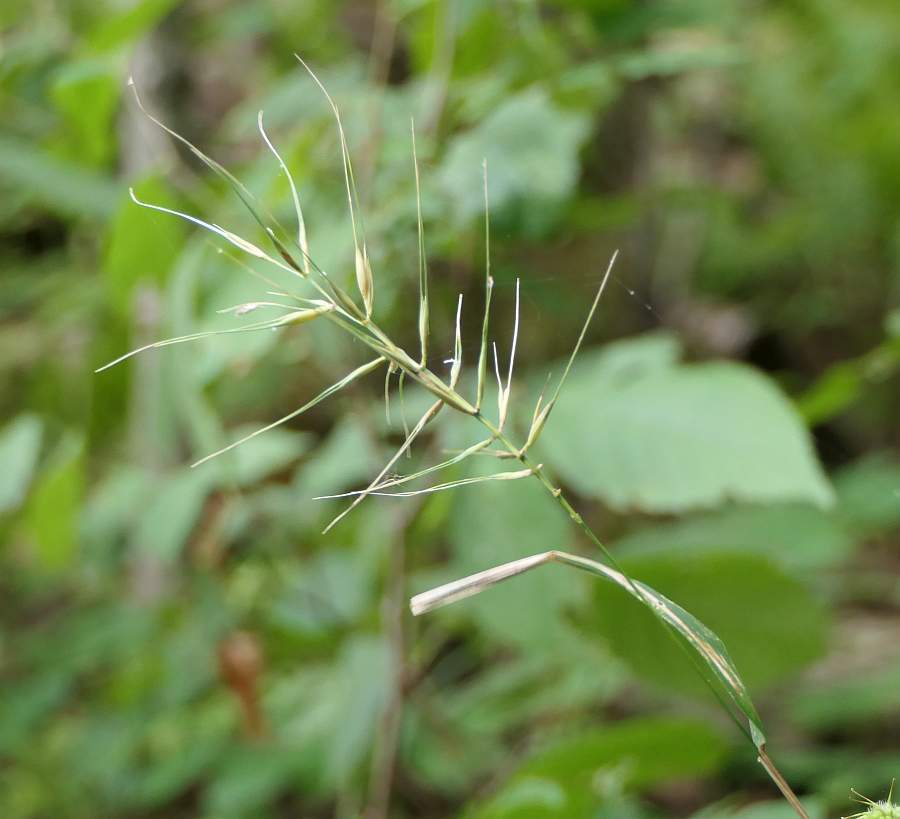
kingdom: Plantae
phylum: Tracheophyta
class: Liliopsida
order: Poales
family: Poaceae
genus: Elymus
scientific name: Elymus hystrix
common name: Bottlebrush grass
